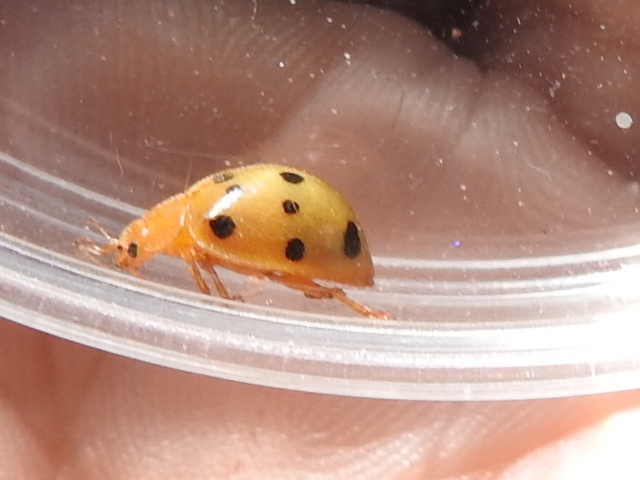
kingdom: Animalia
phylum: Arthropoda
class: Insecta
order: Coleoptera
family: Coccinellidae
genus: Epilachna
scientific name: Epilachna tredecimnotata
